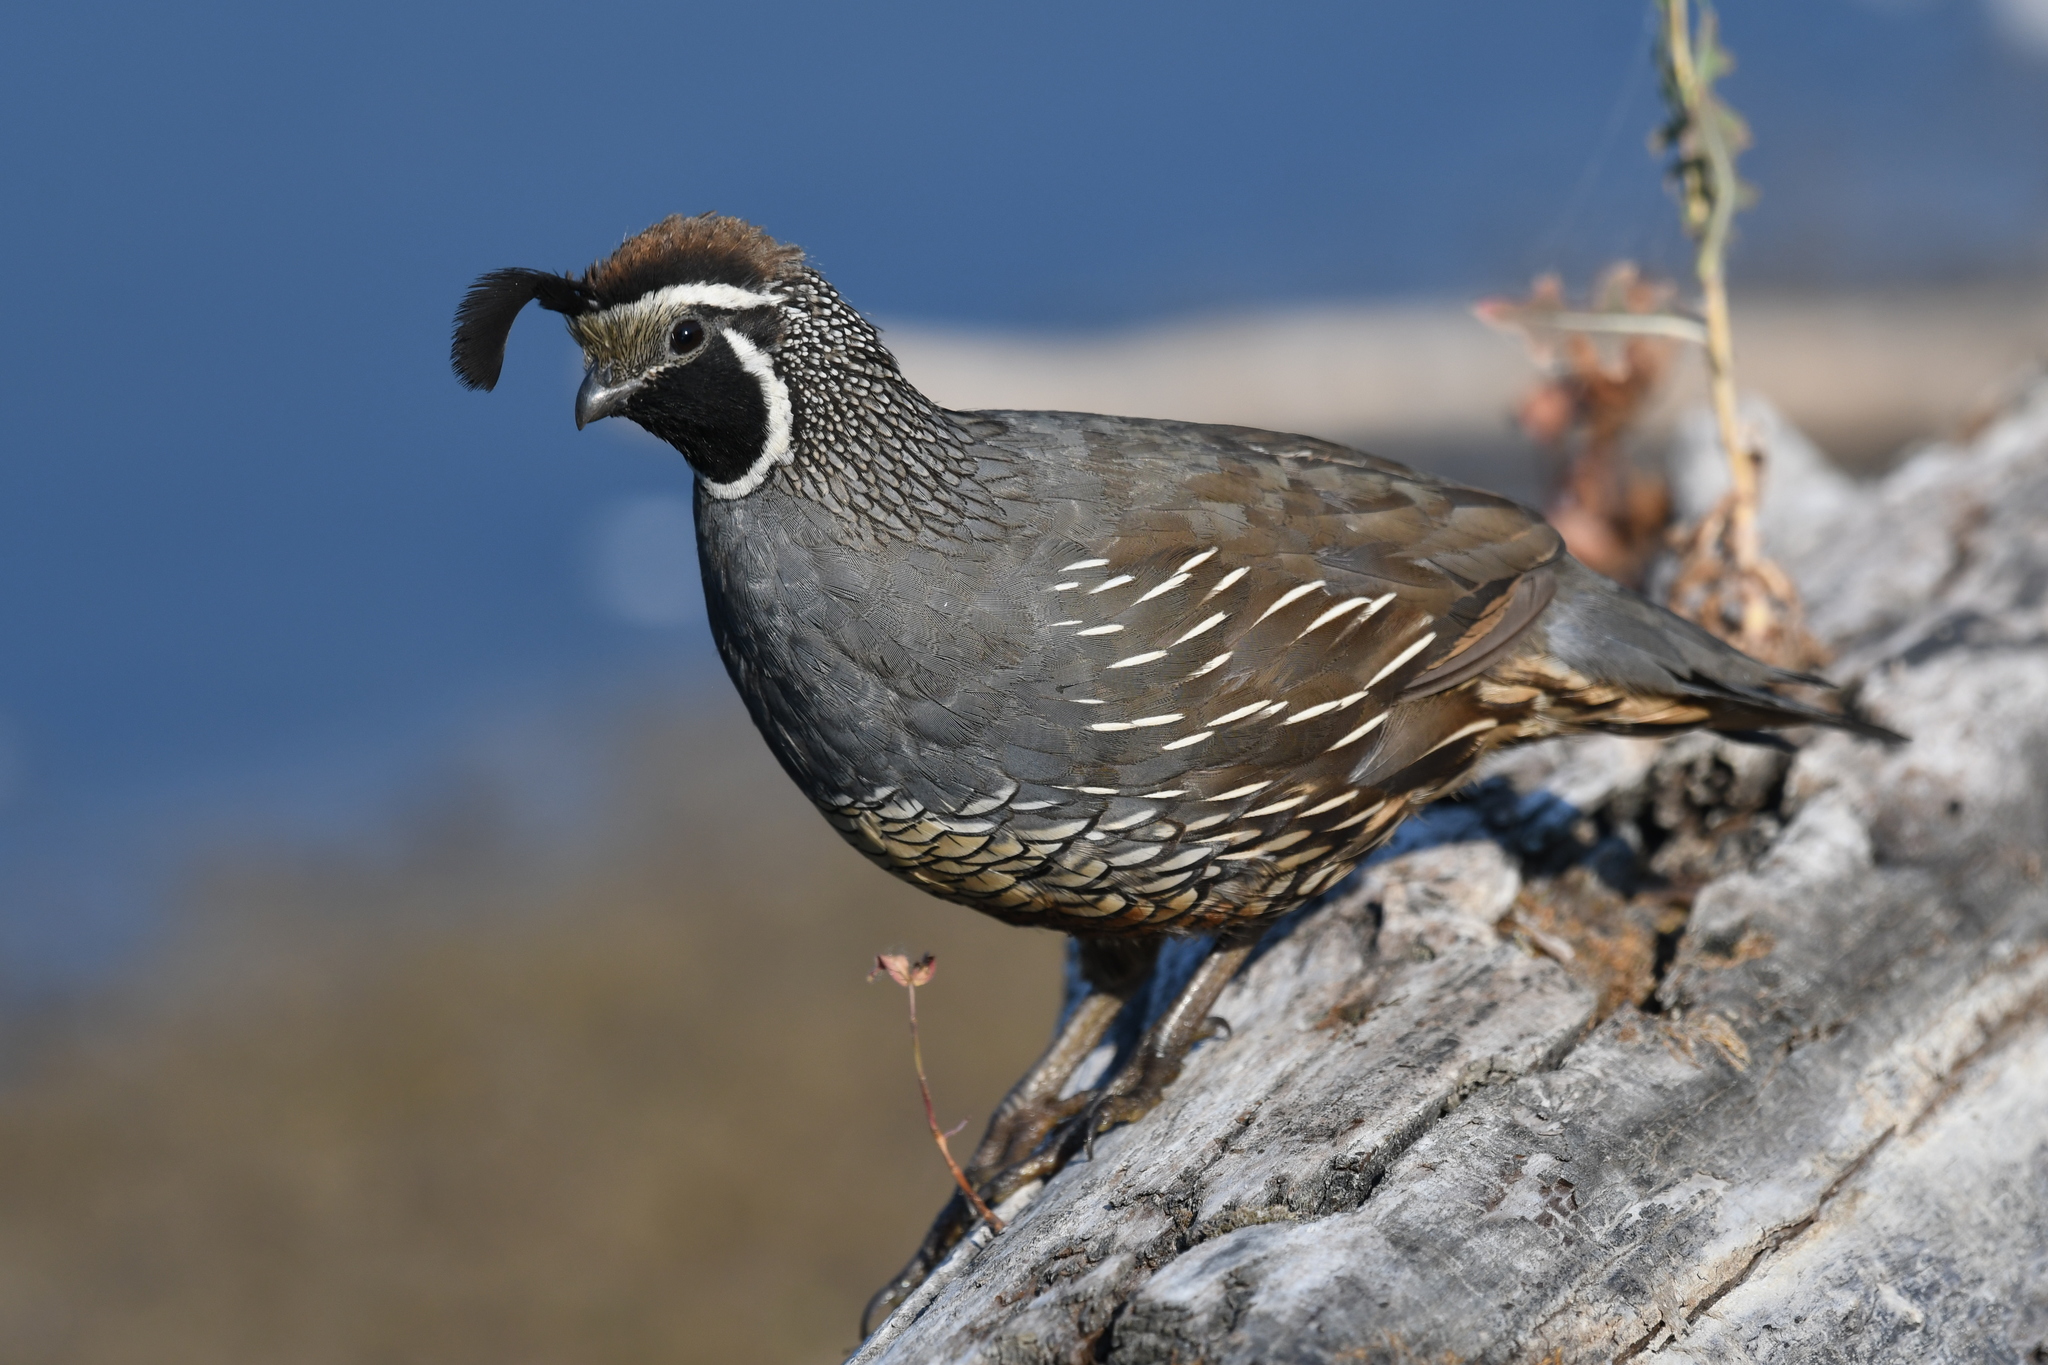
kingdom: Animalia
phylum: Chordata
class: Aves
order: Galliformes
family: Odontophoridae
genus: Callipepla
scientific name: Callipepla californica
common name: California quail
